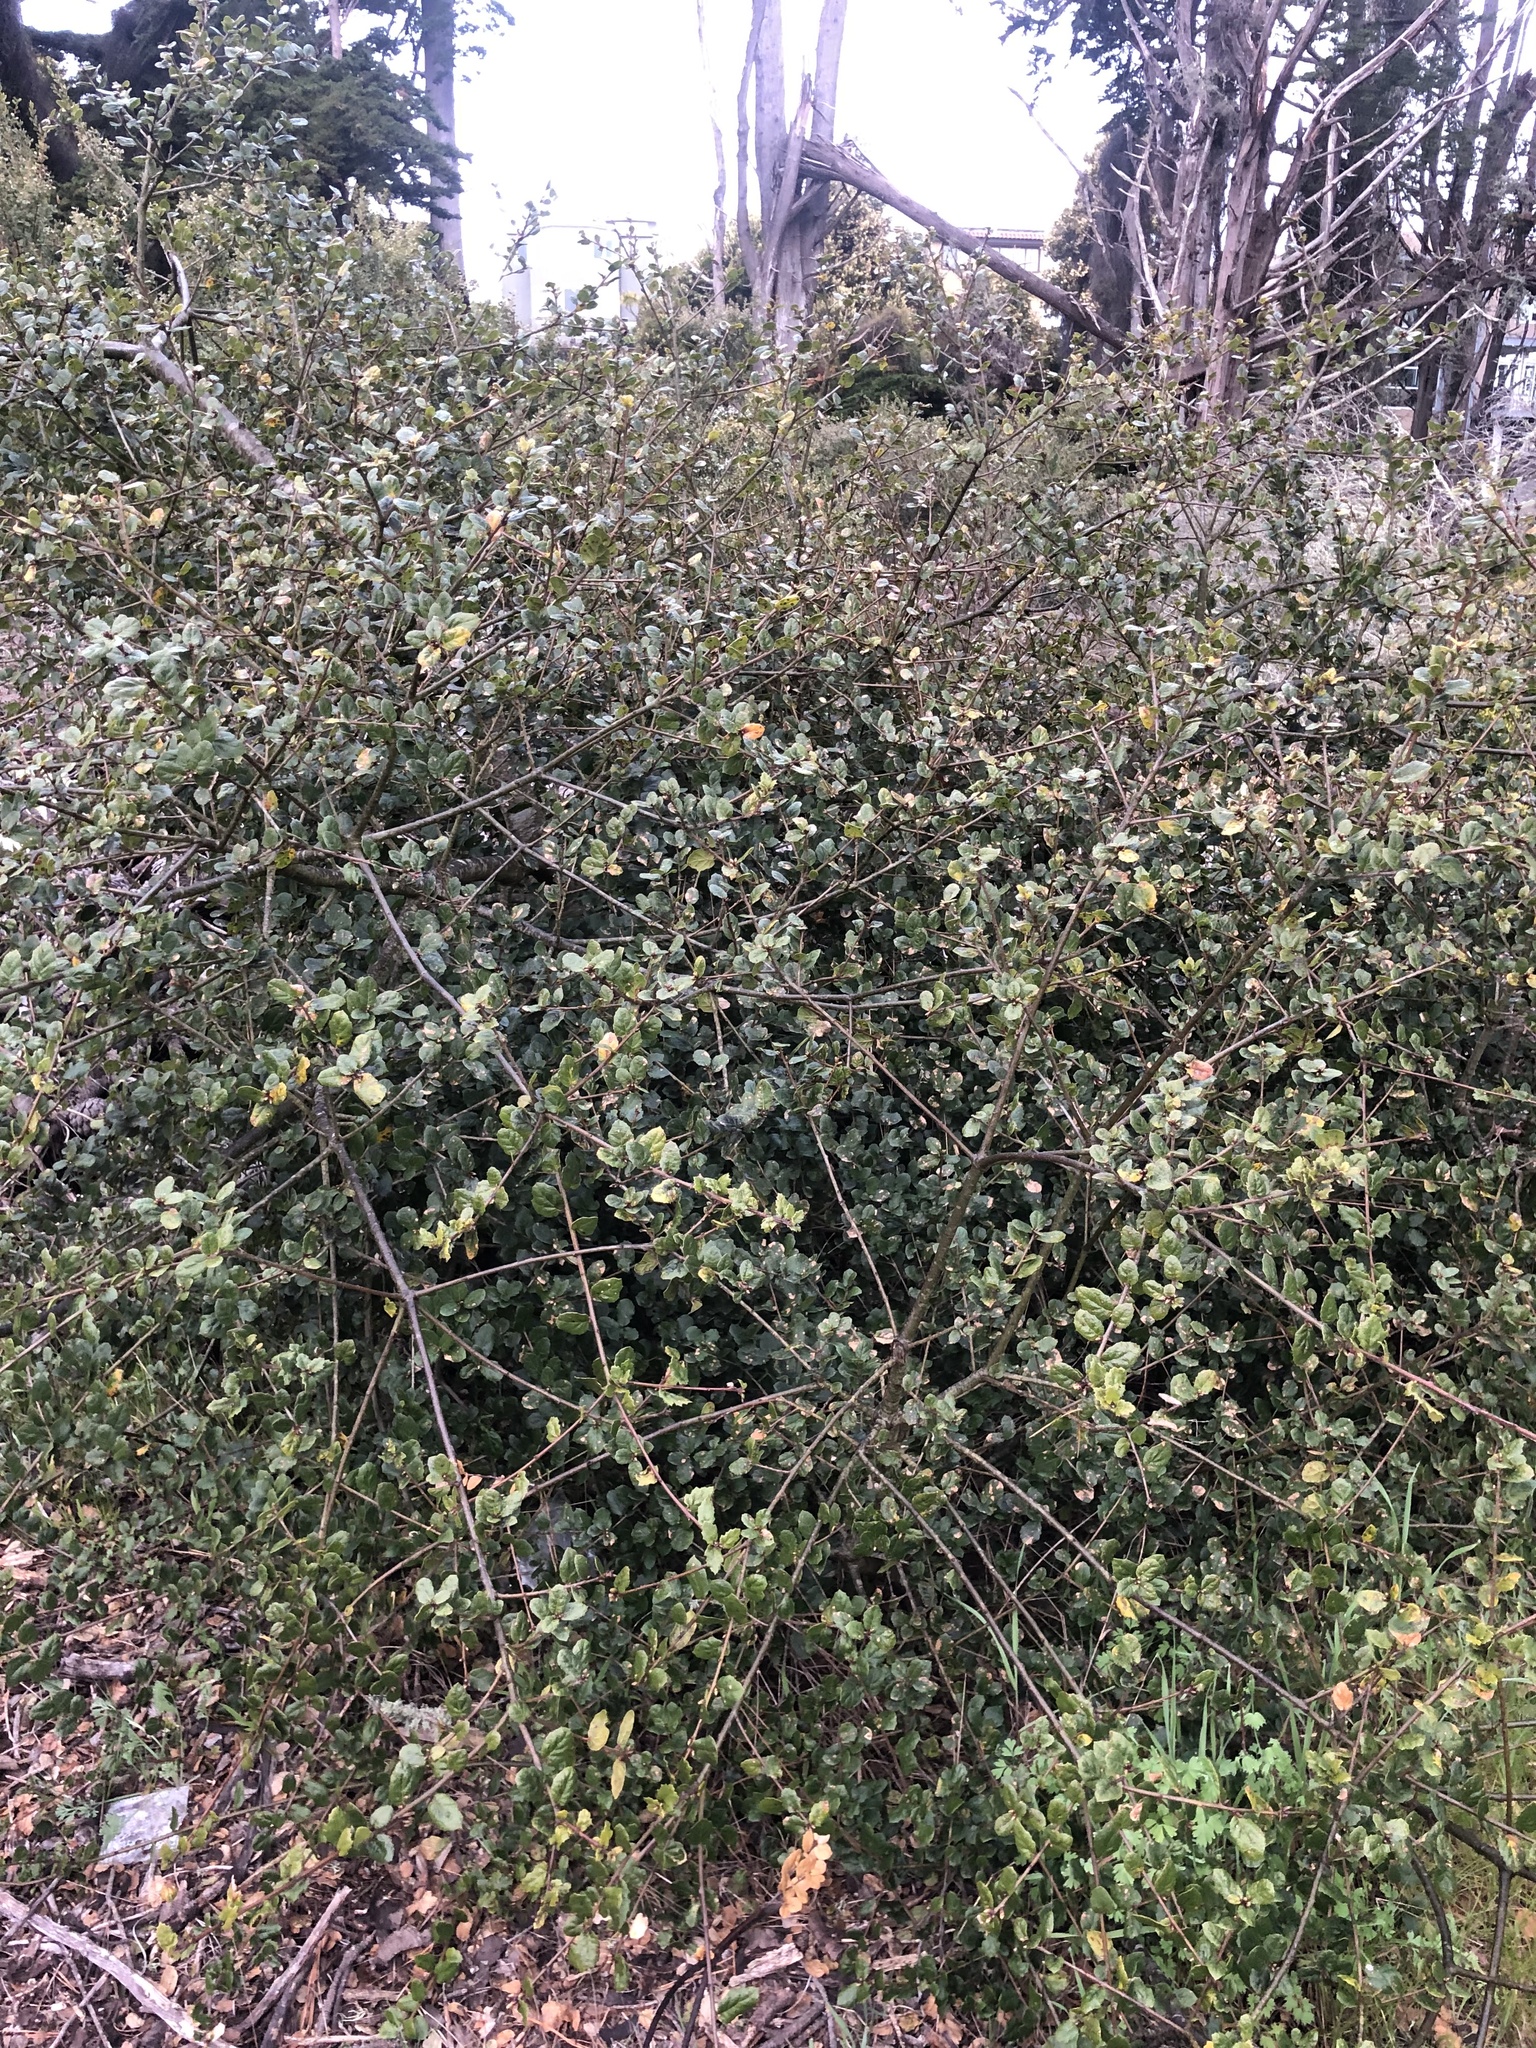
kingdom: Plantae
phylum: Tracheophyta
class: Magnoliopsida
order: Fagales
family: Fagaceae
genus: Quercus
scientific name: Quercus agrifolia
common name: California live oak
